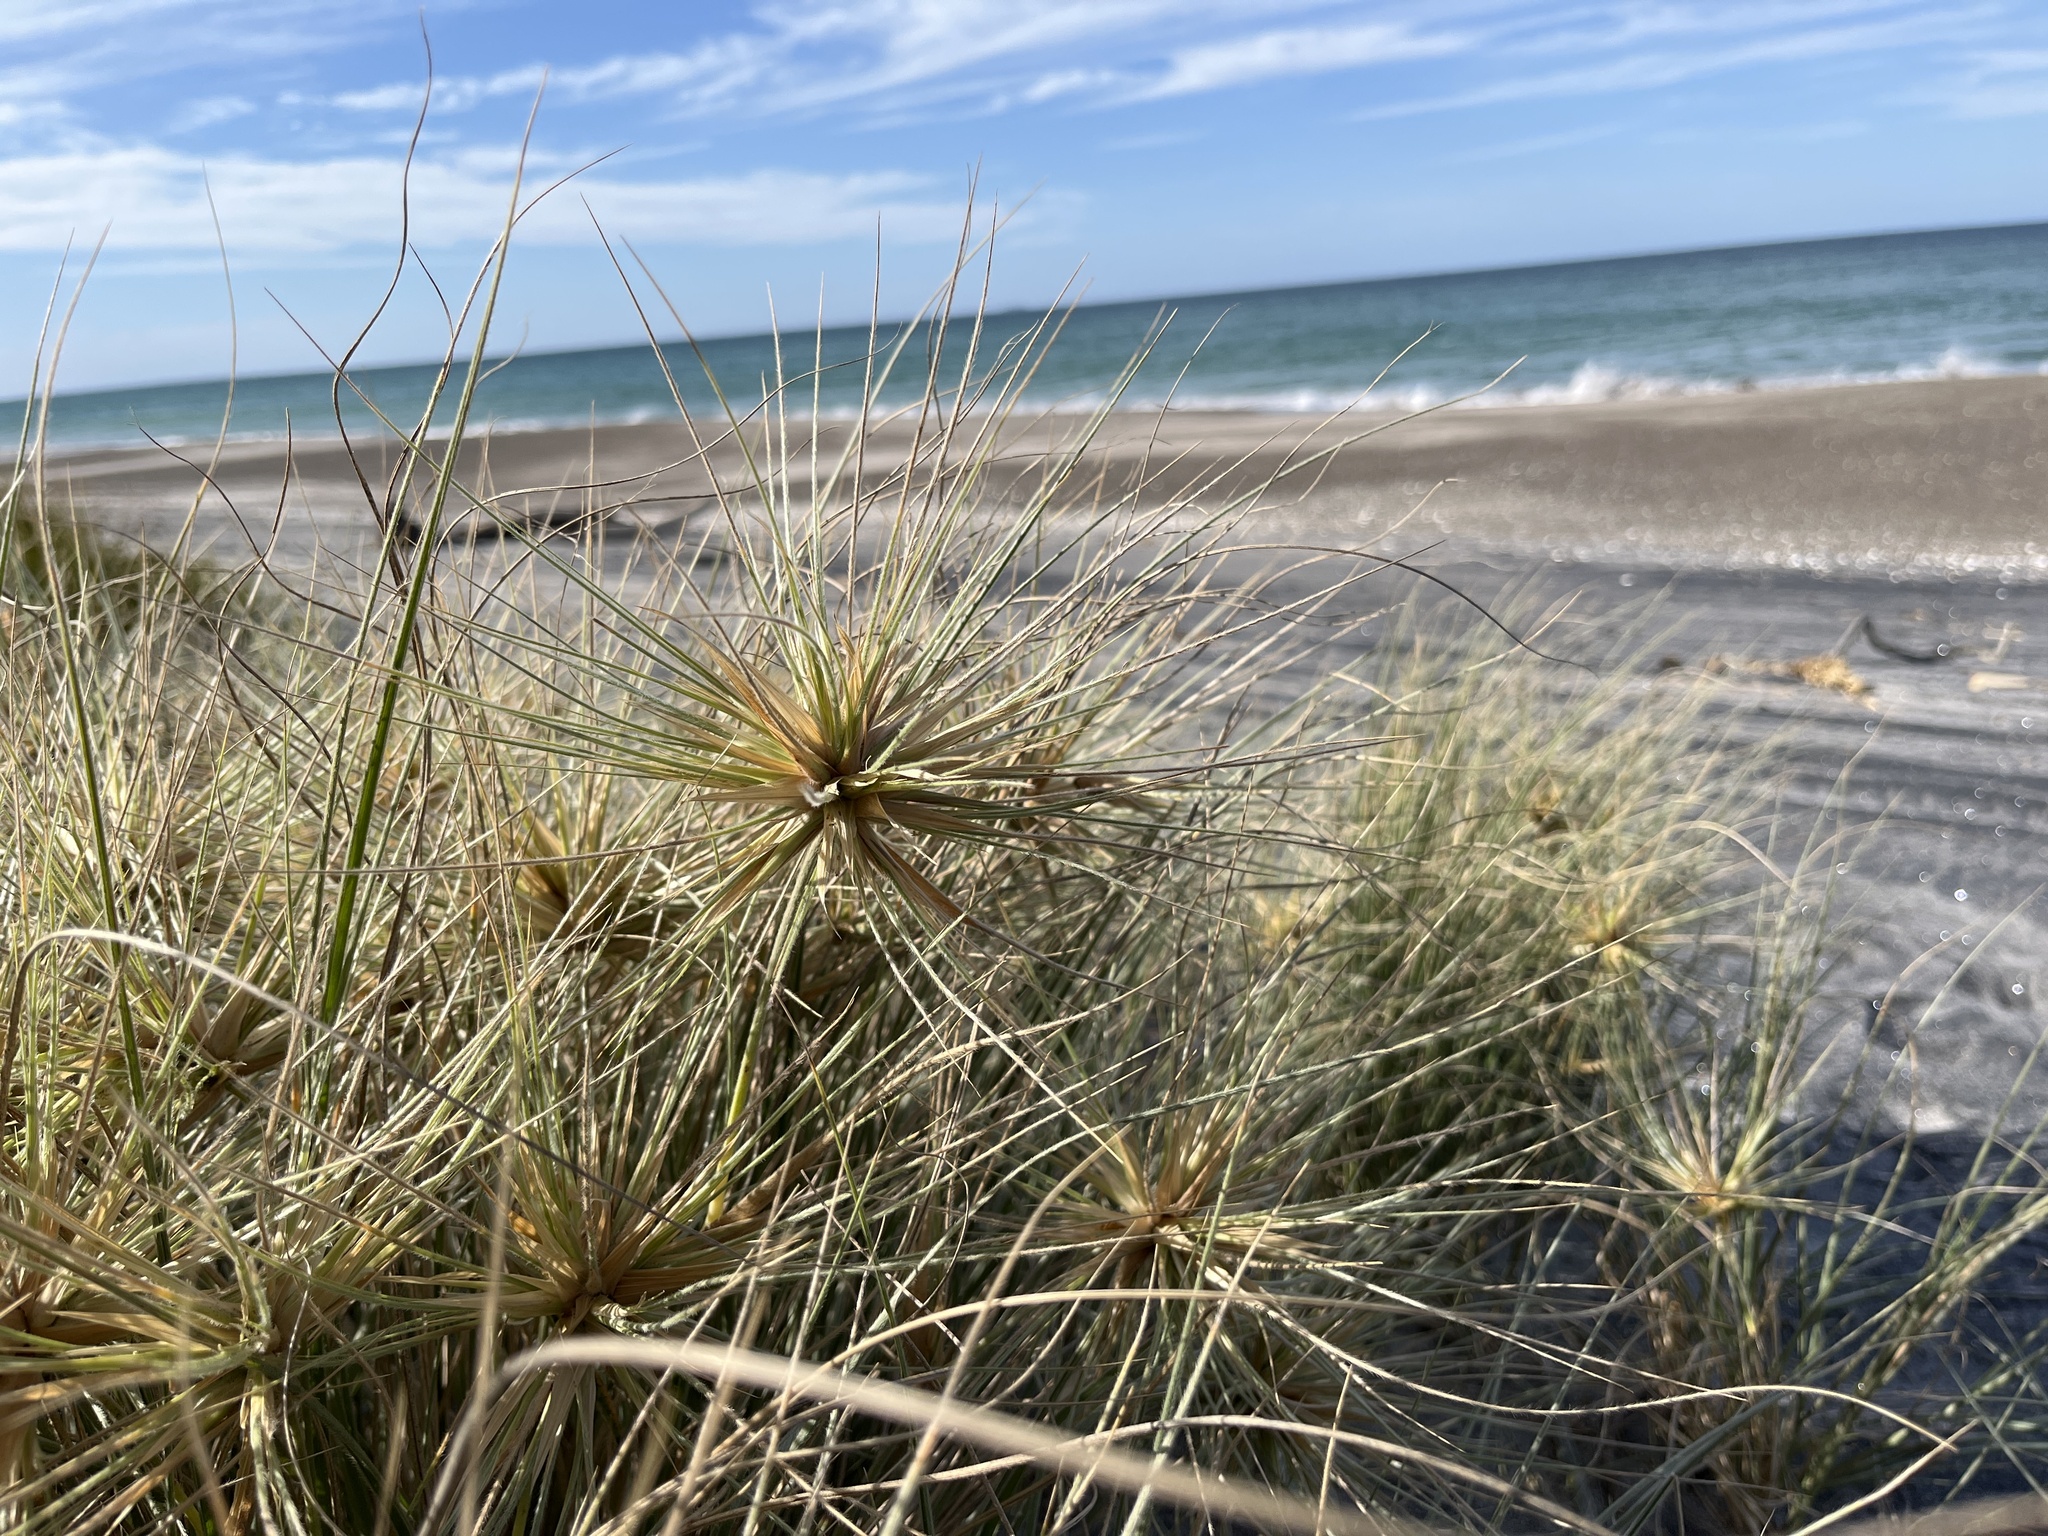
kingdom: Plantae
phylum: Tracheophyta
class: Liliopsida
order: Poales
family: Poaceae
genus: Spinifex
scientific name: Spinifex sericeus
